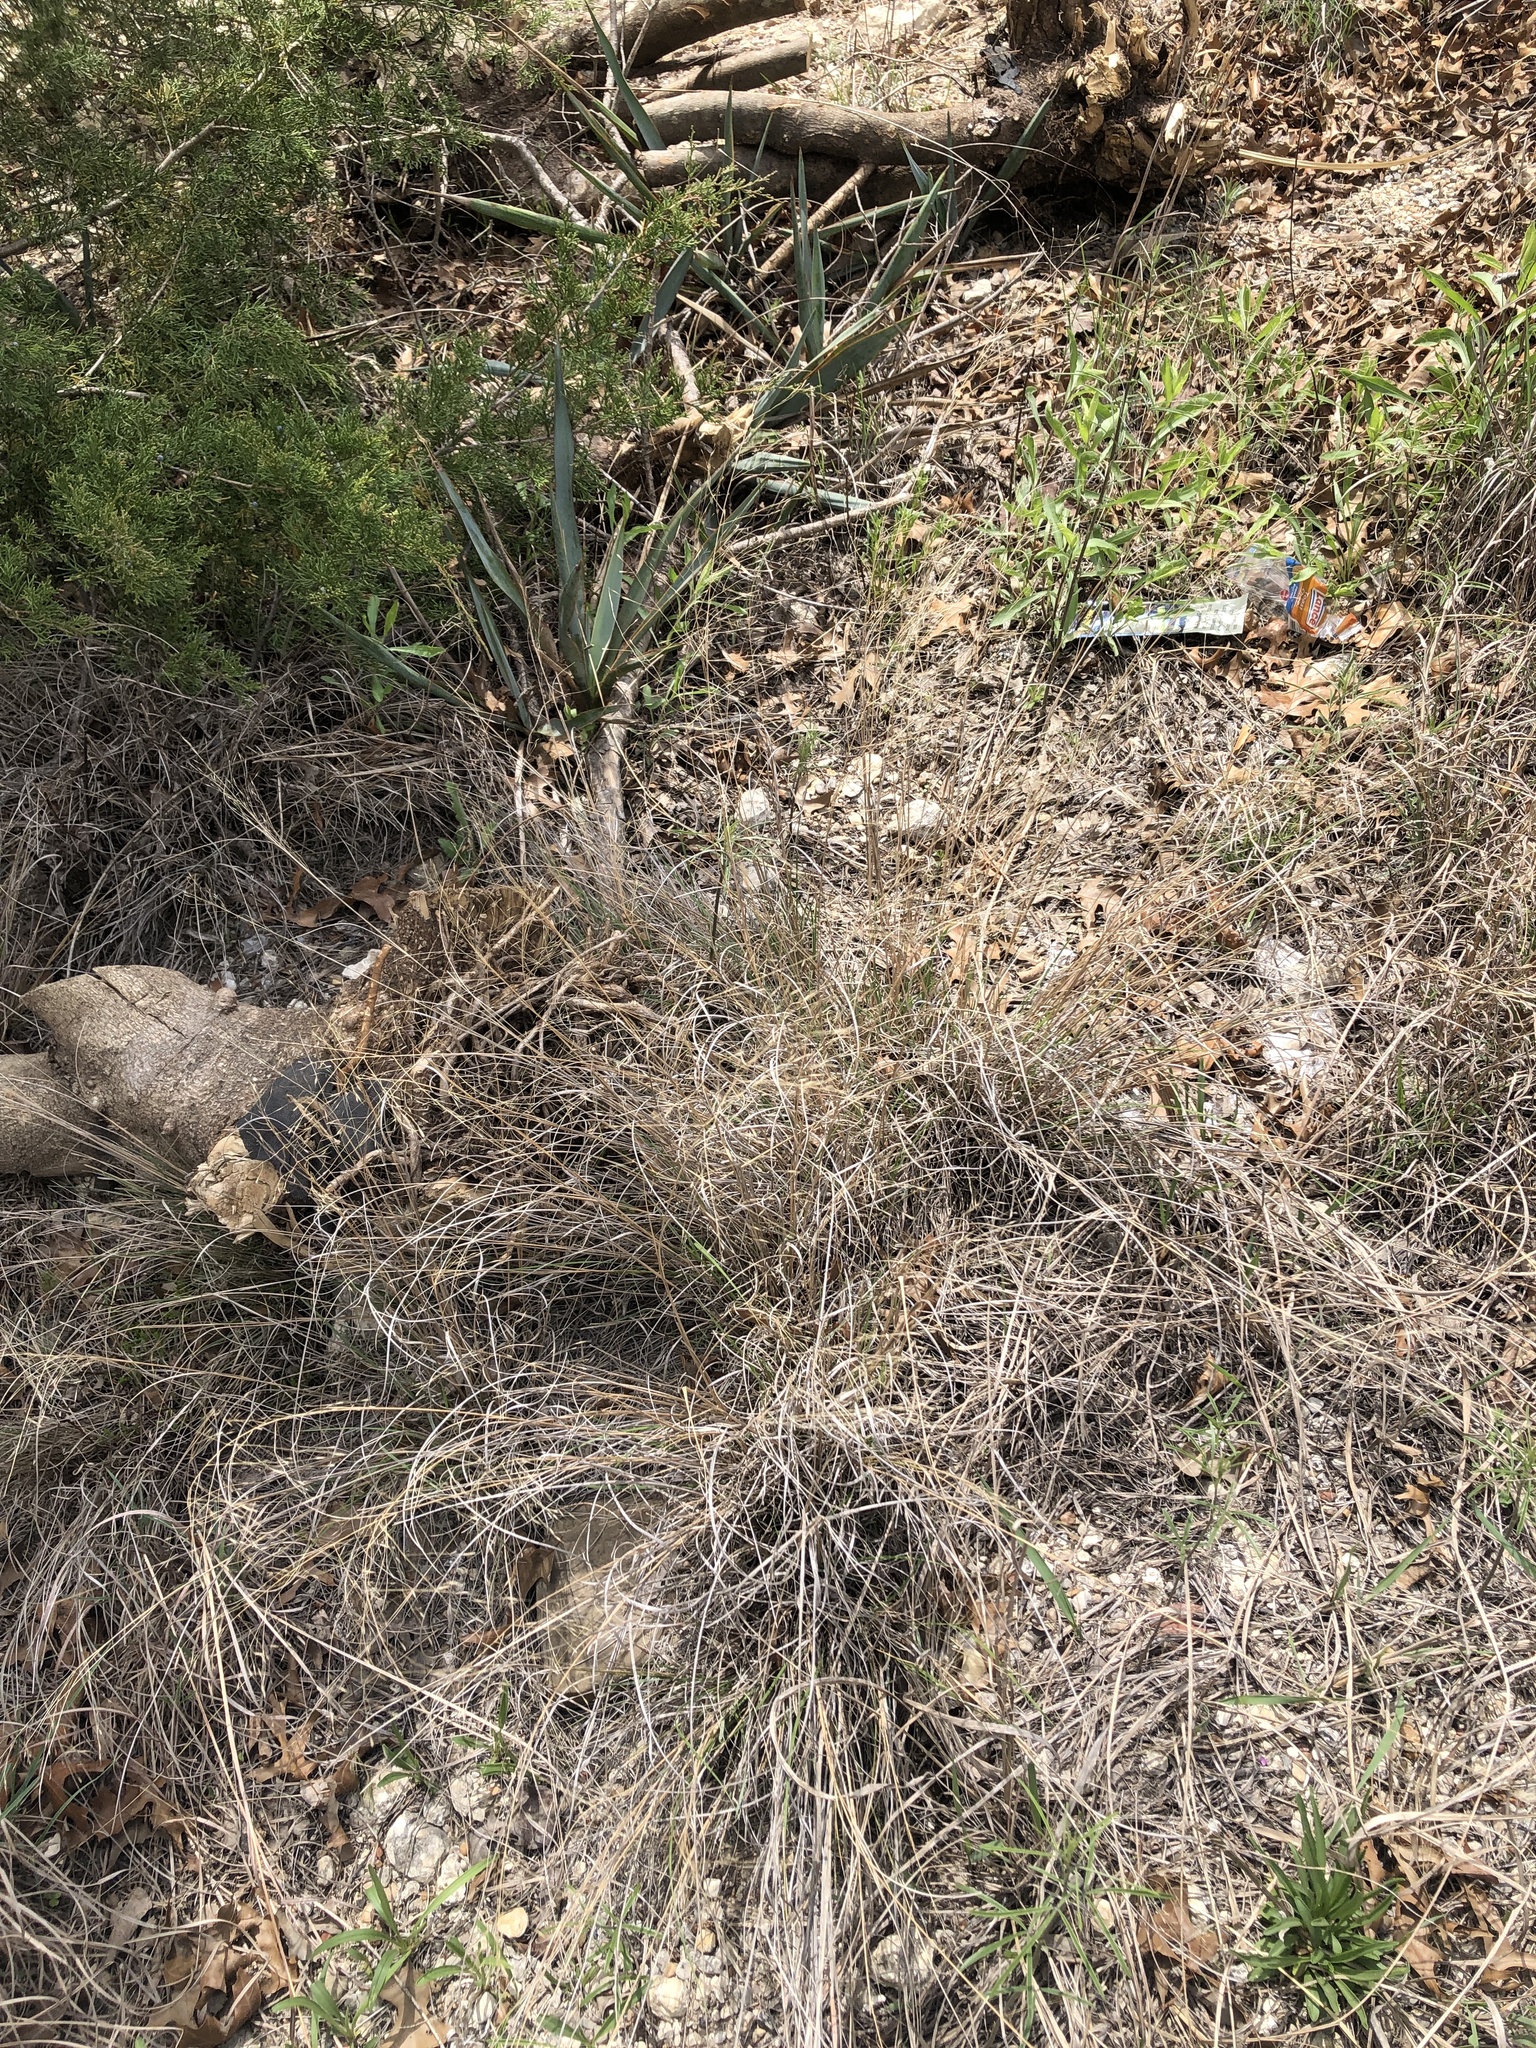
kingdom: Plantae
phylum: Tracheophyta
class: Liliopsida
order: Poales
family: Poaceae
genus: Muhlenbergia
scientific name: Muhlenbergia reverchonii
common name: Seep muhly
